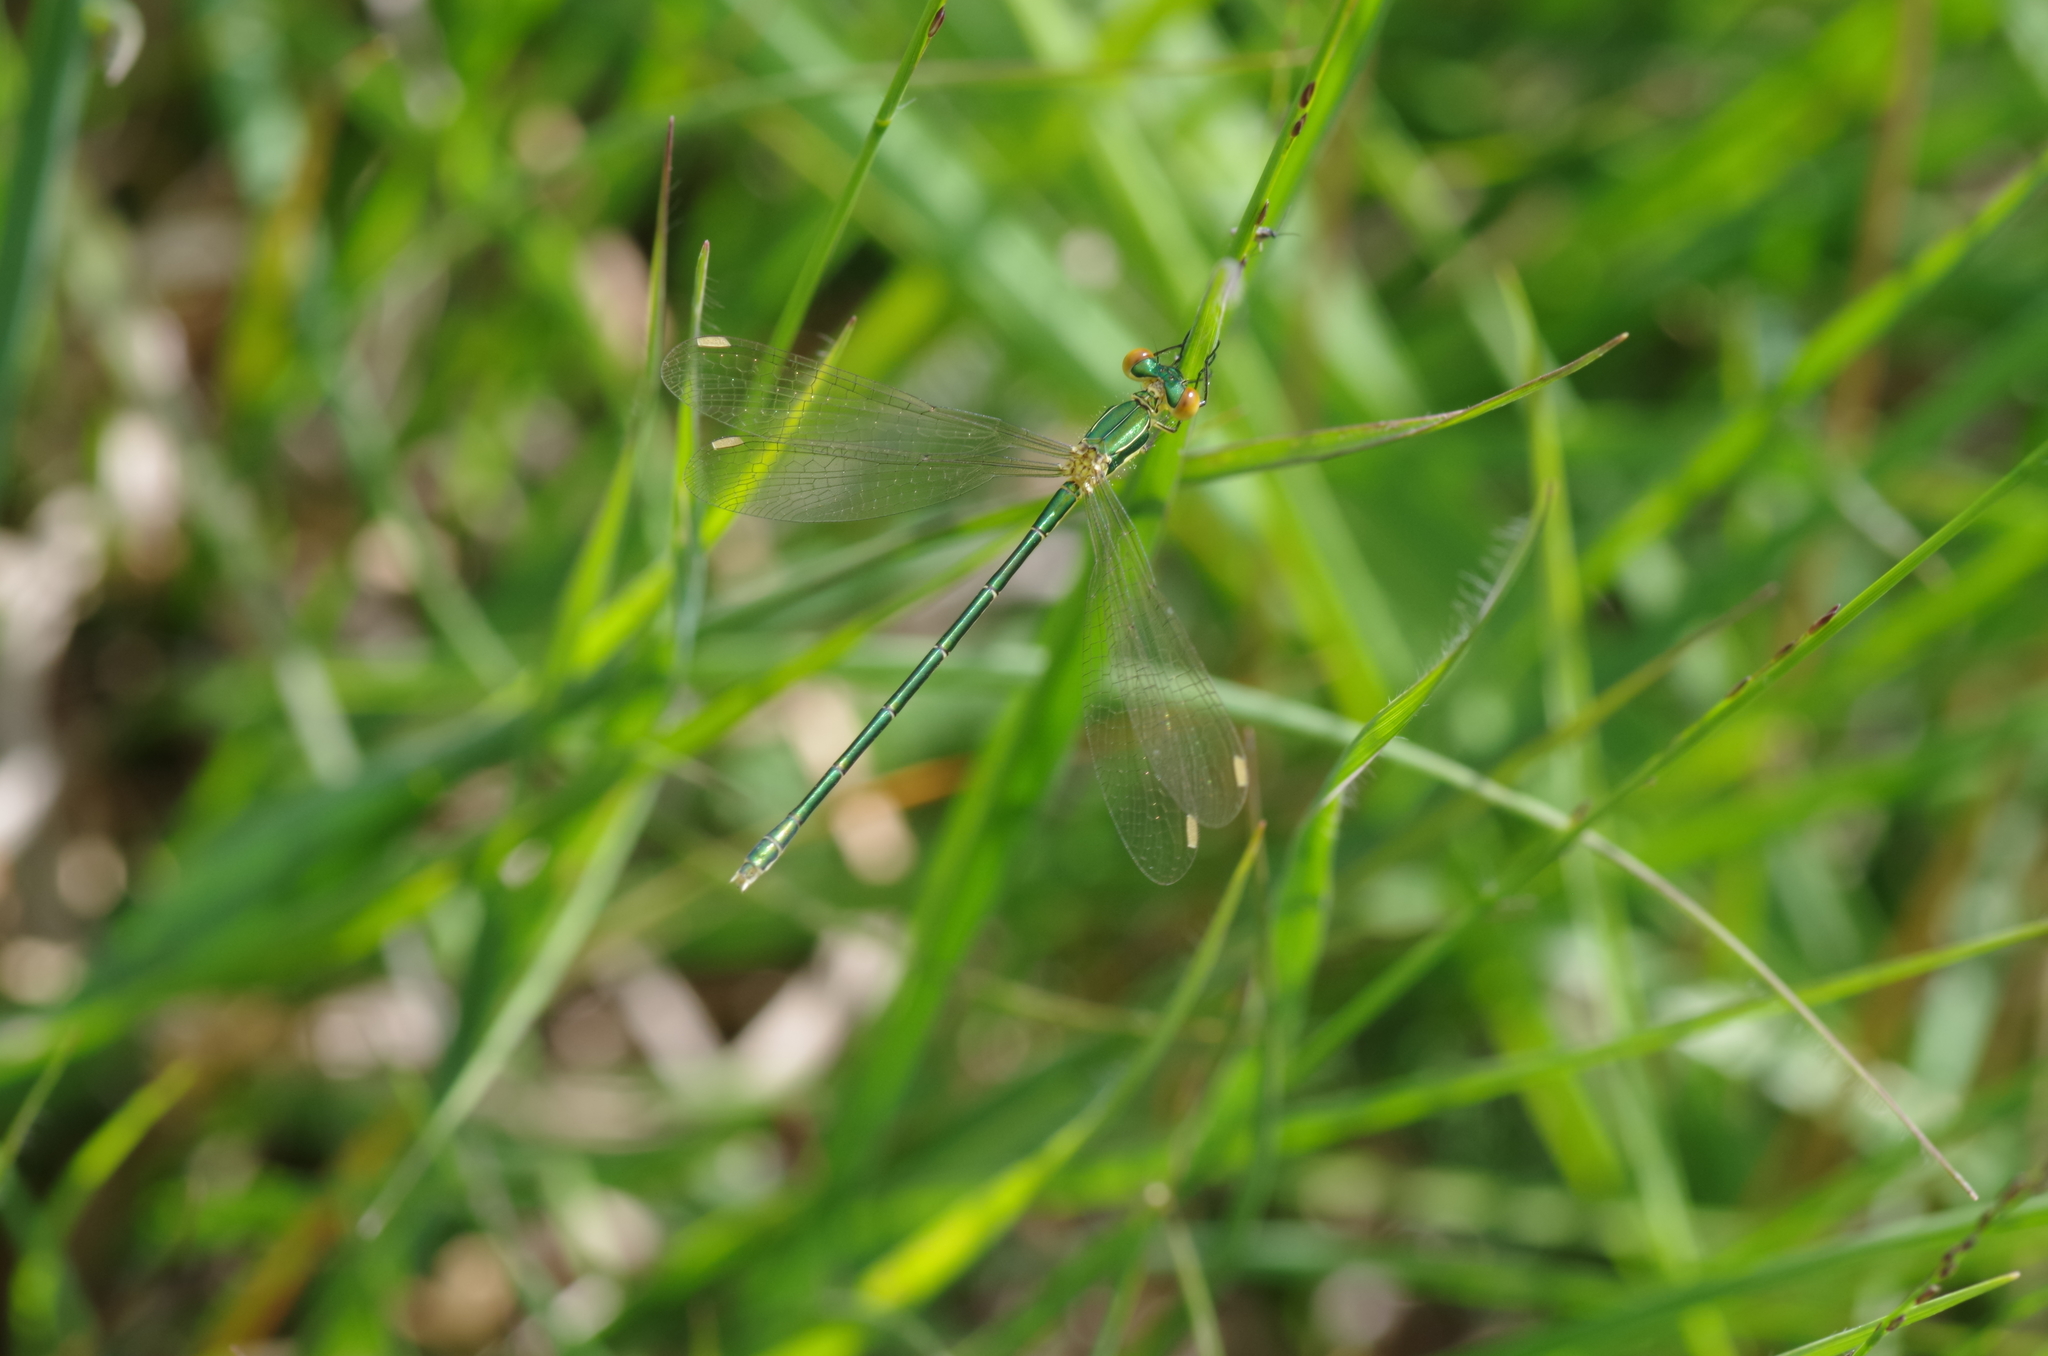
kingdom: Animalia
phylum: Arthropoda
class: Insecta
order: Odonata
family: Lestidae
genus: Lestes
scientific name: Lestes virens
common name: Small emerald spreadwing
